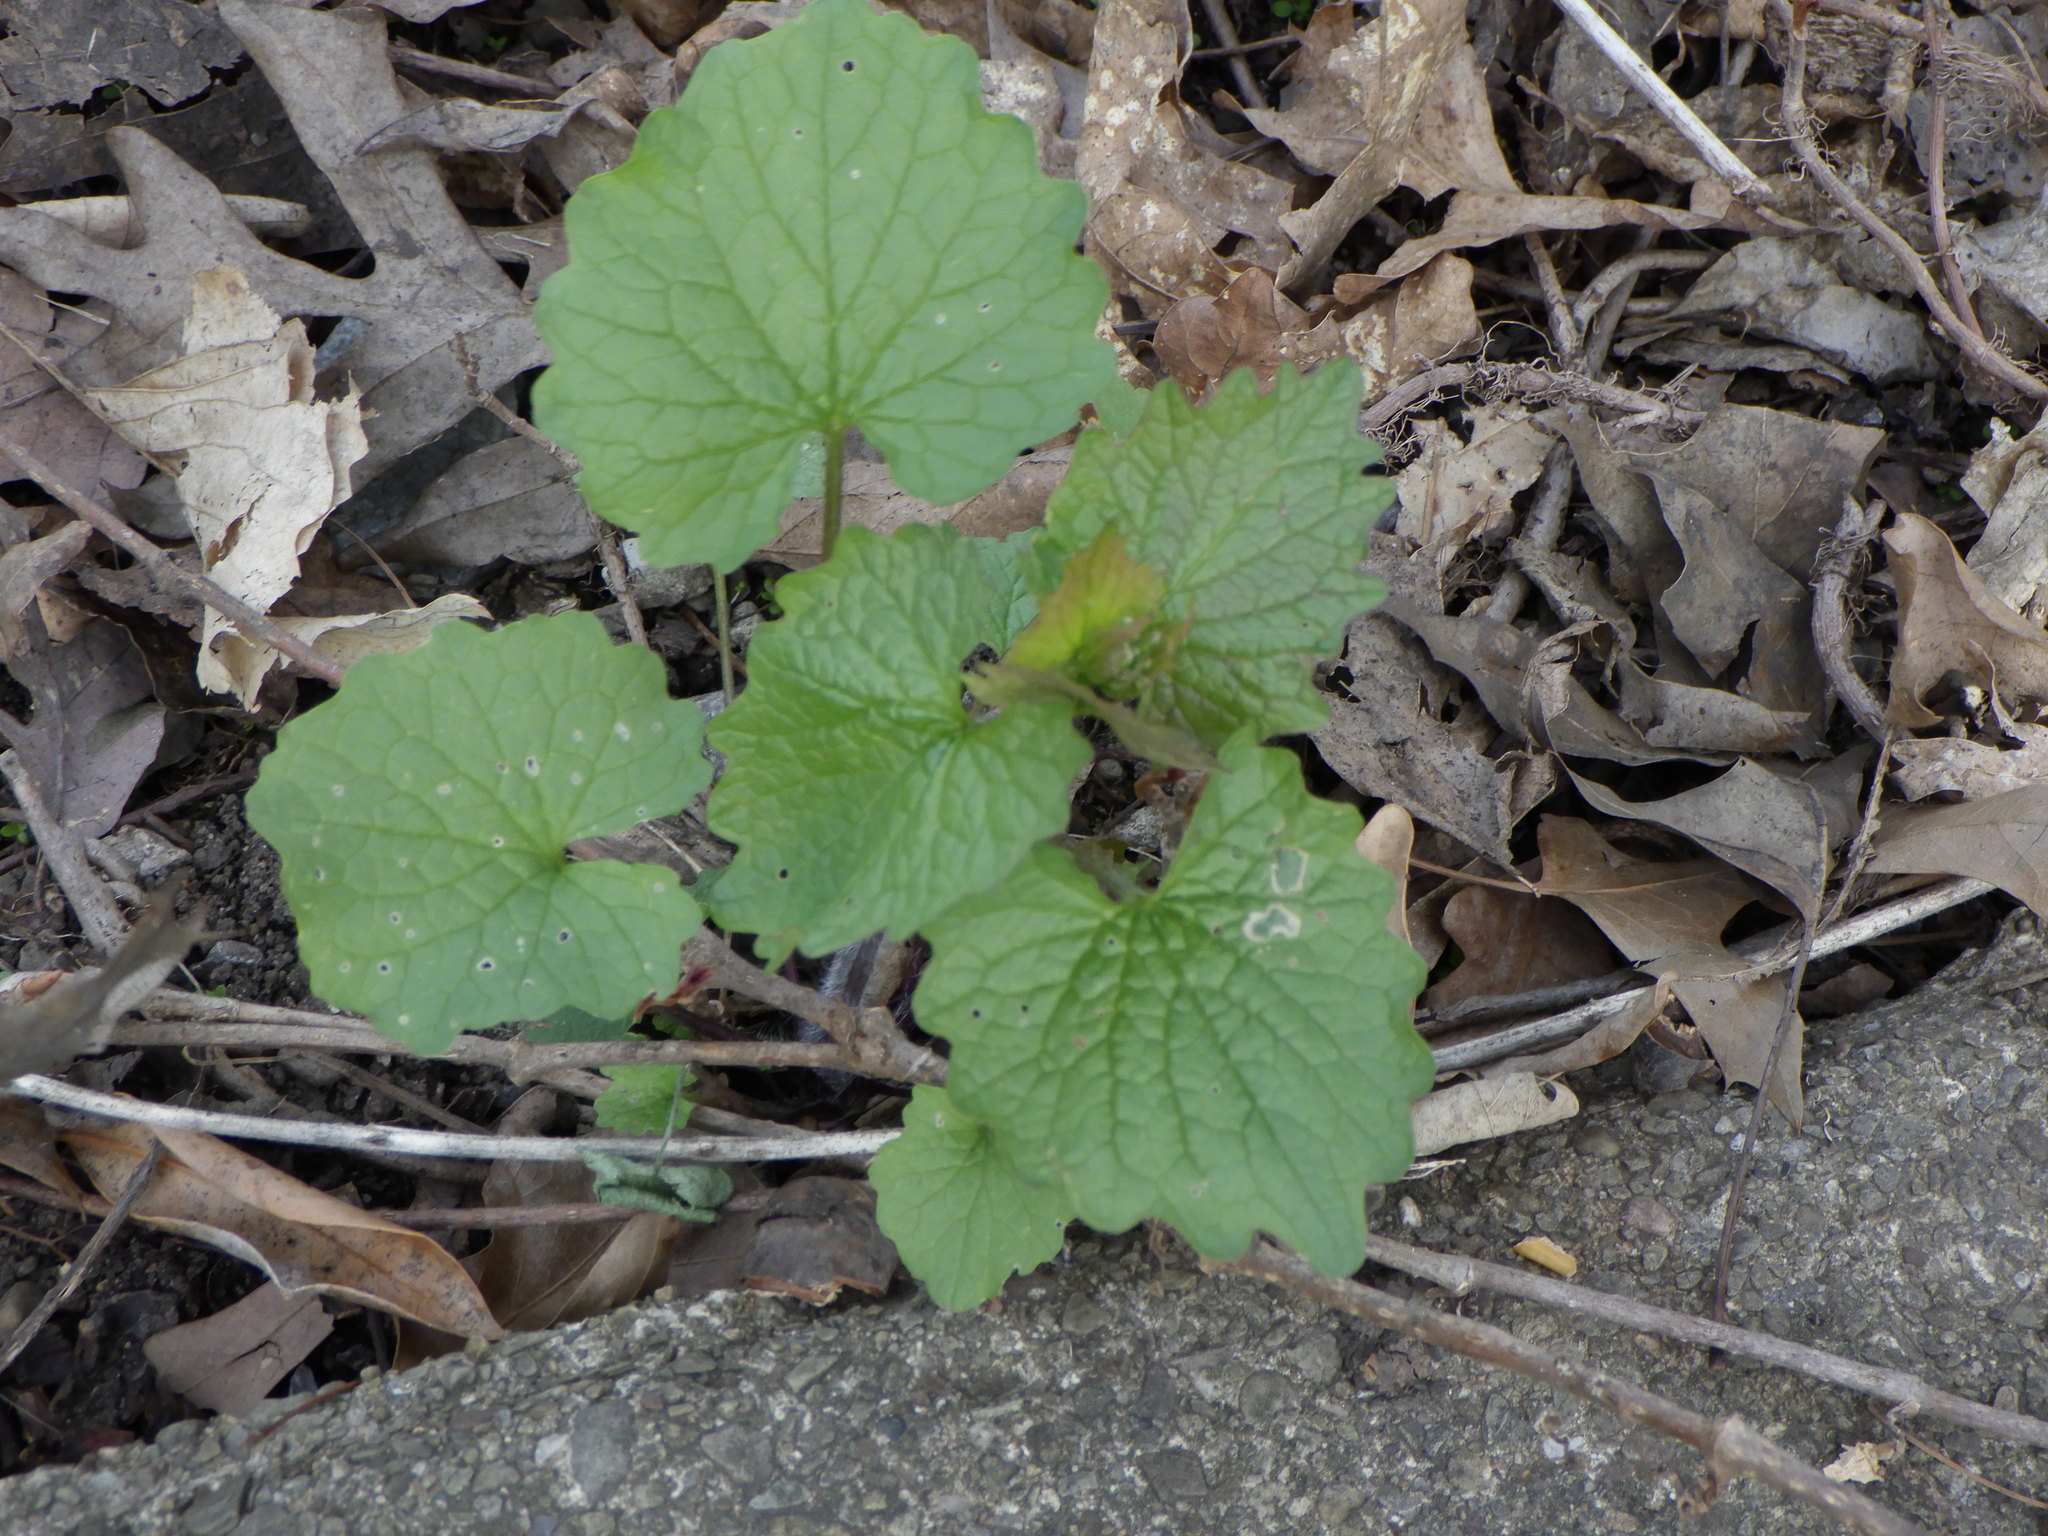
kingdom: Plantae
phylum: Tracheophyta
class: Magnoliopsida
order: Brassicales
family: Brassicaceae
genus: Alliaria
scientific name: Alliaria petiolata
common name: Garlic mustard
